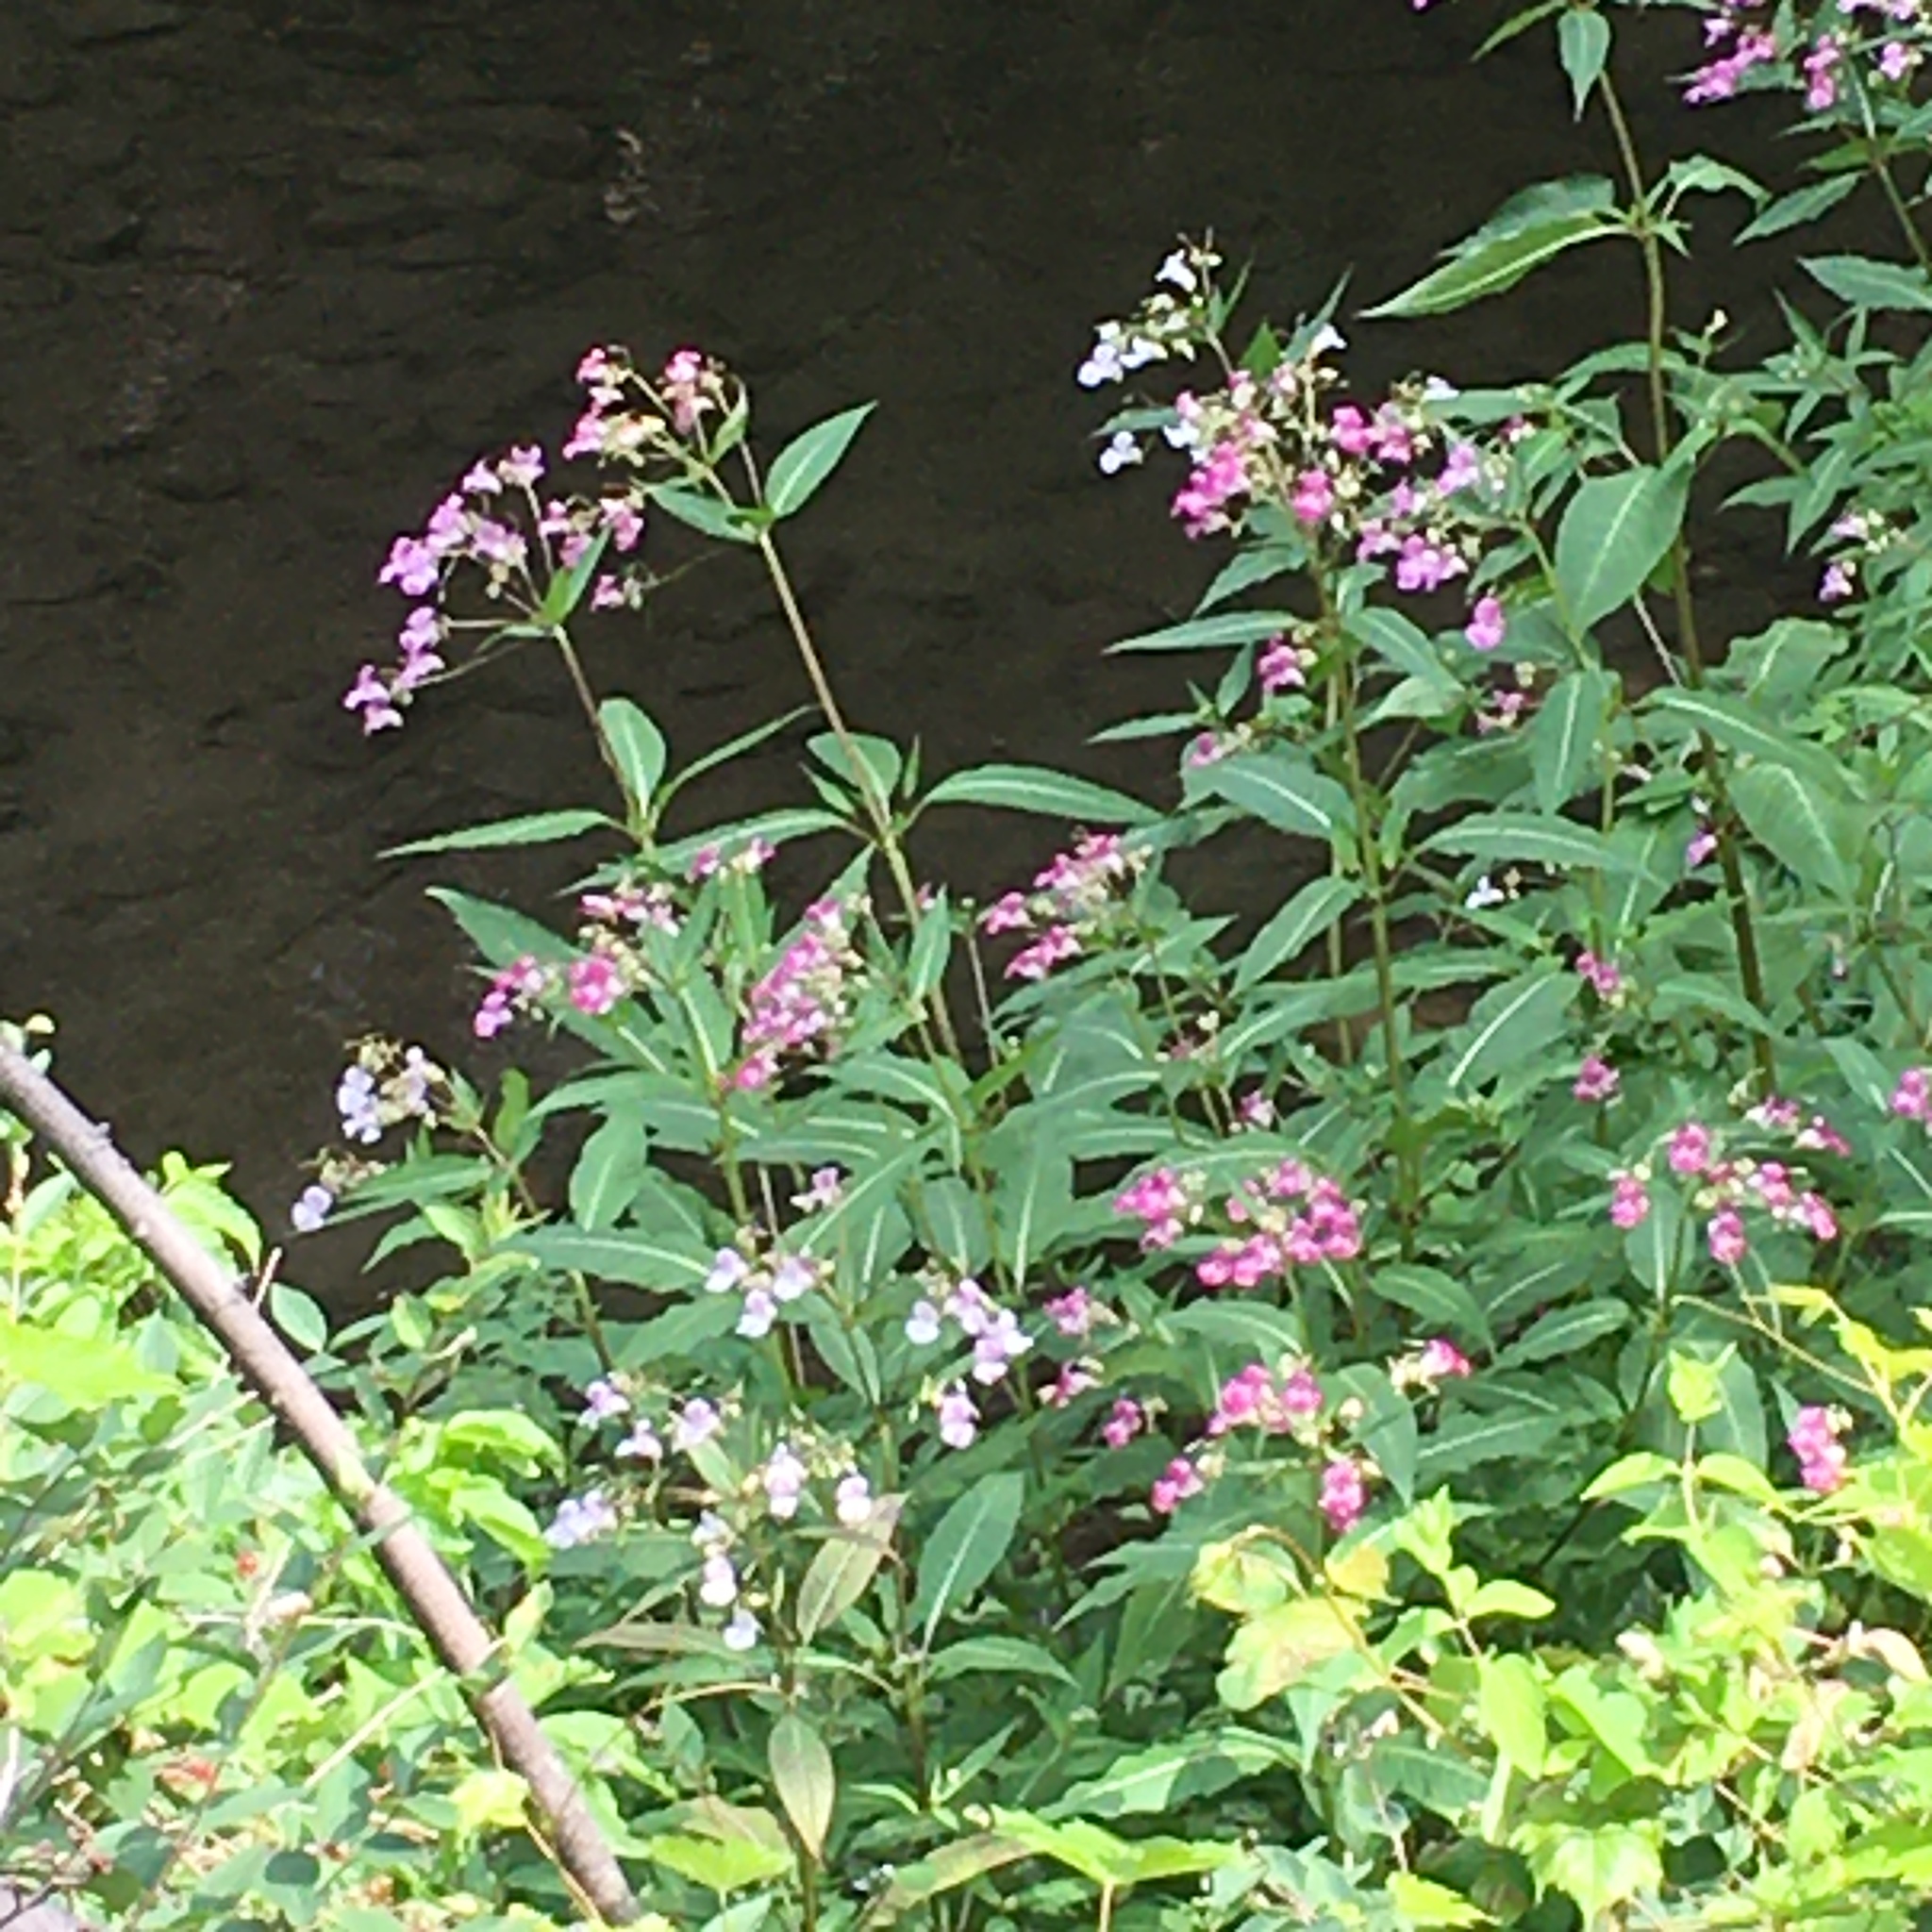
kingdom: Plantae
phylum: Tracheophyta
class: Magnoliopsida
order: Ericales
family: Balsaminaceae
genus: Impatiens
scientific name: Impatiens glandulifera
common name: Himalayan balsam
